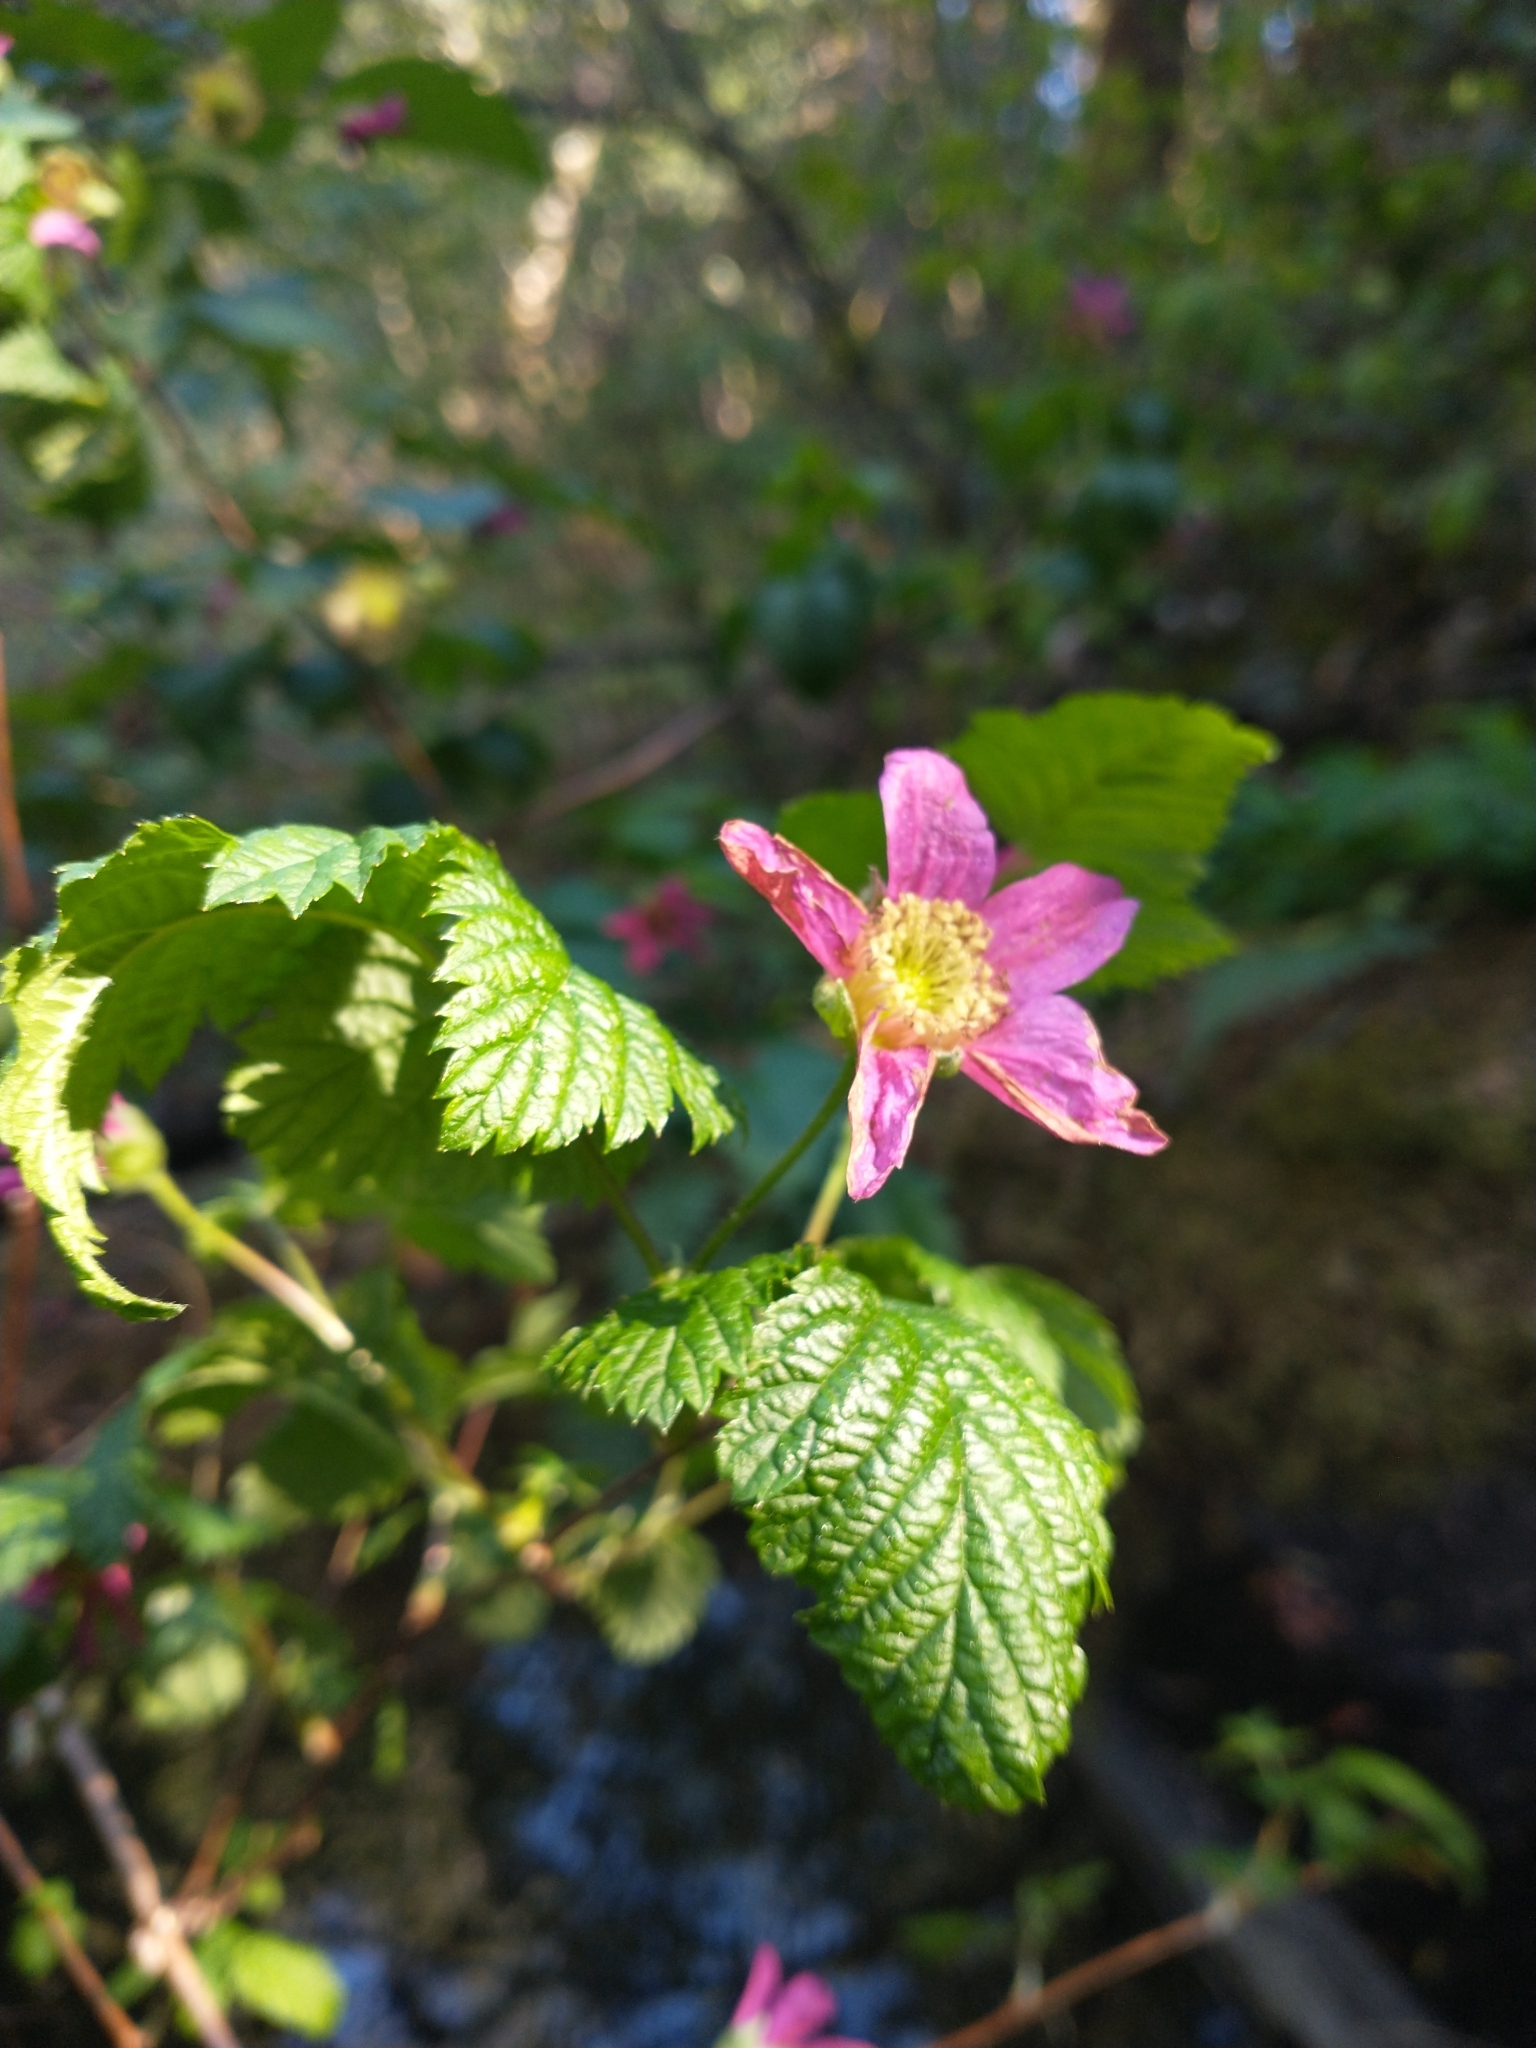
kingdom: Plantae
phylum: Tracheophyta
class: Magnoliopsida
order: Rosales
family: Rosaceae
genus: Rubus
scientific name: Rubus spectabilis
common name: Salmonberry
